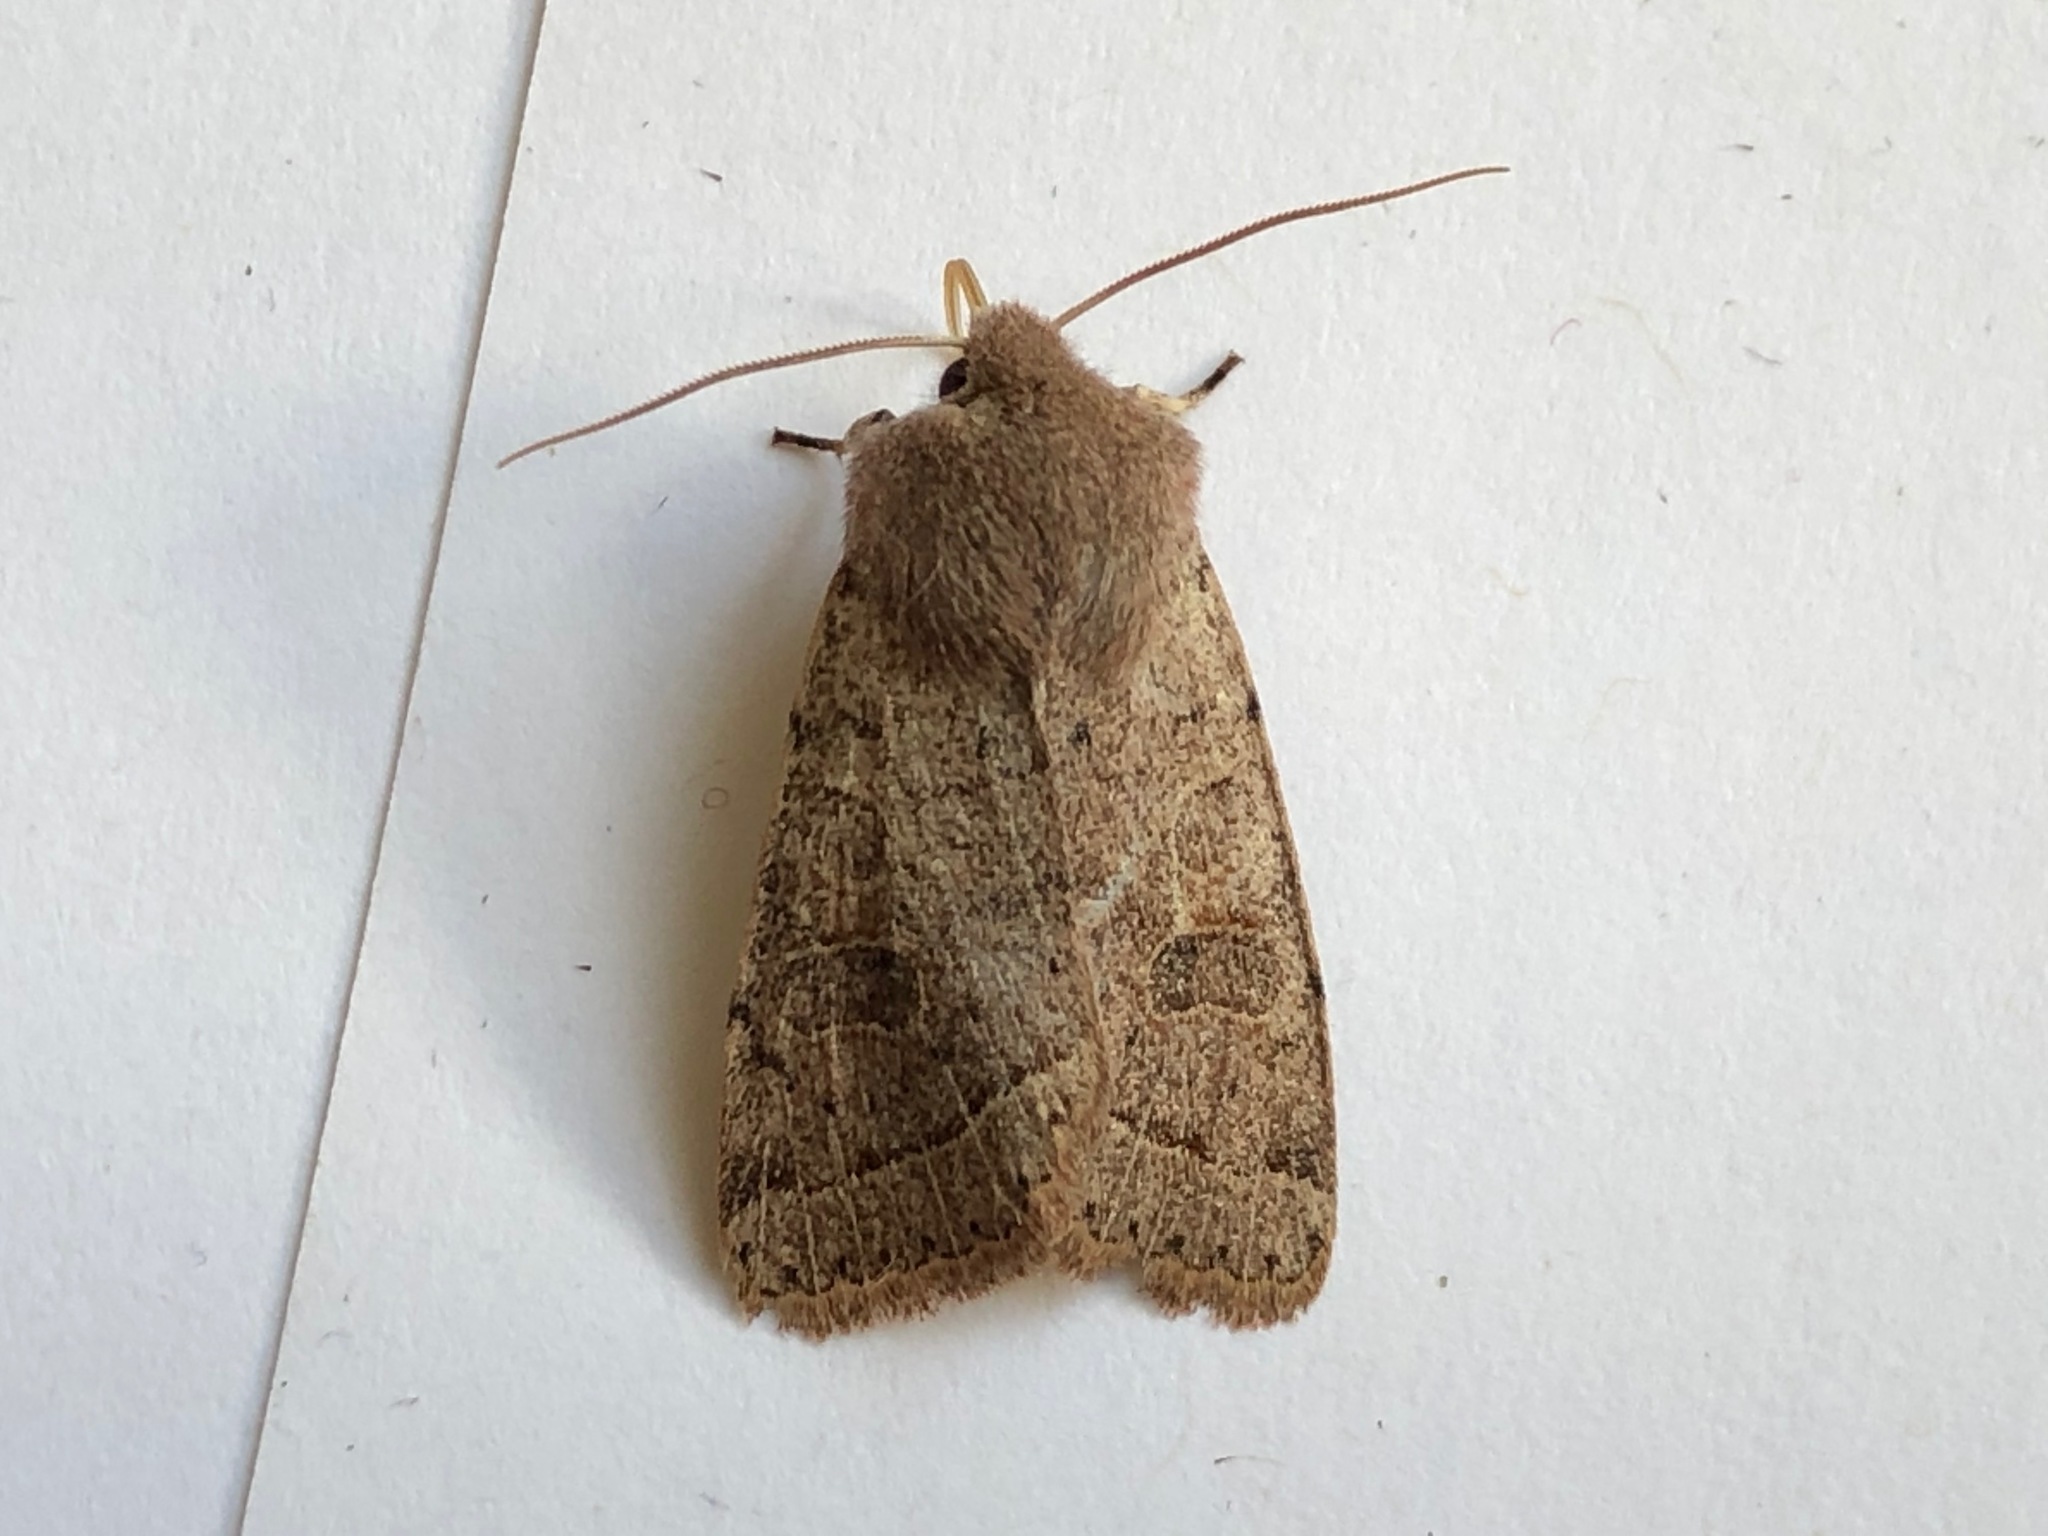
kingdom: Animalia
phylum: Arthropoda
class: Insecta
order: Lepidoptera
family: Noctuidae
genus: Orthosia
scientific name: Orthosia cerasi
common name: Common quaker
